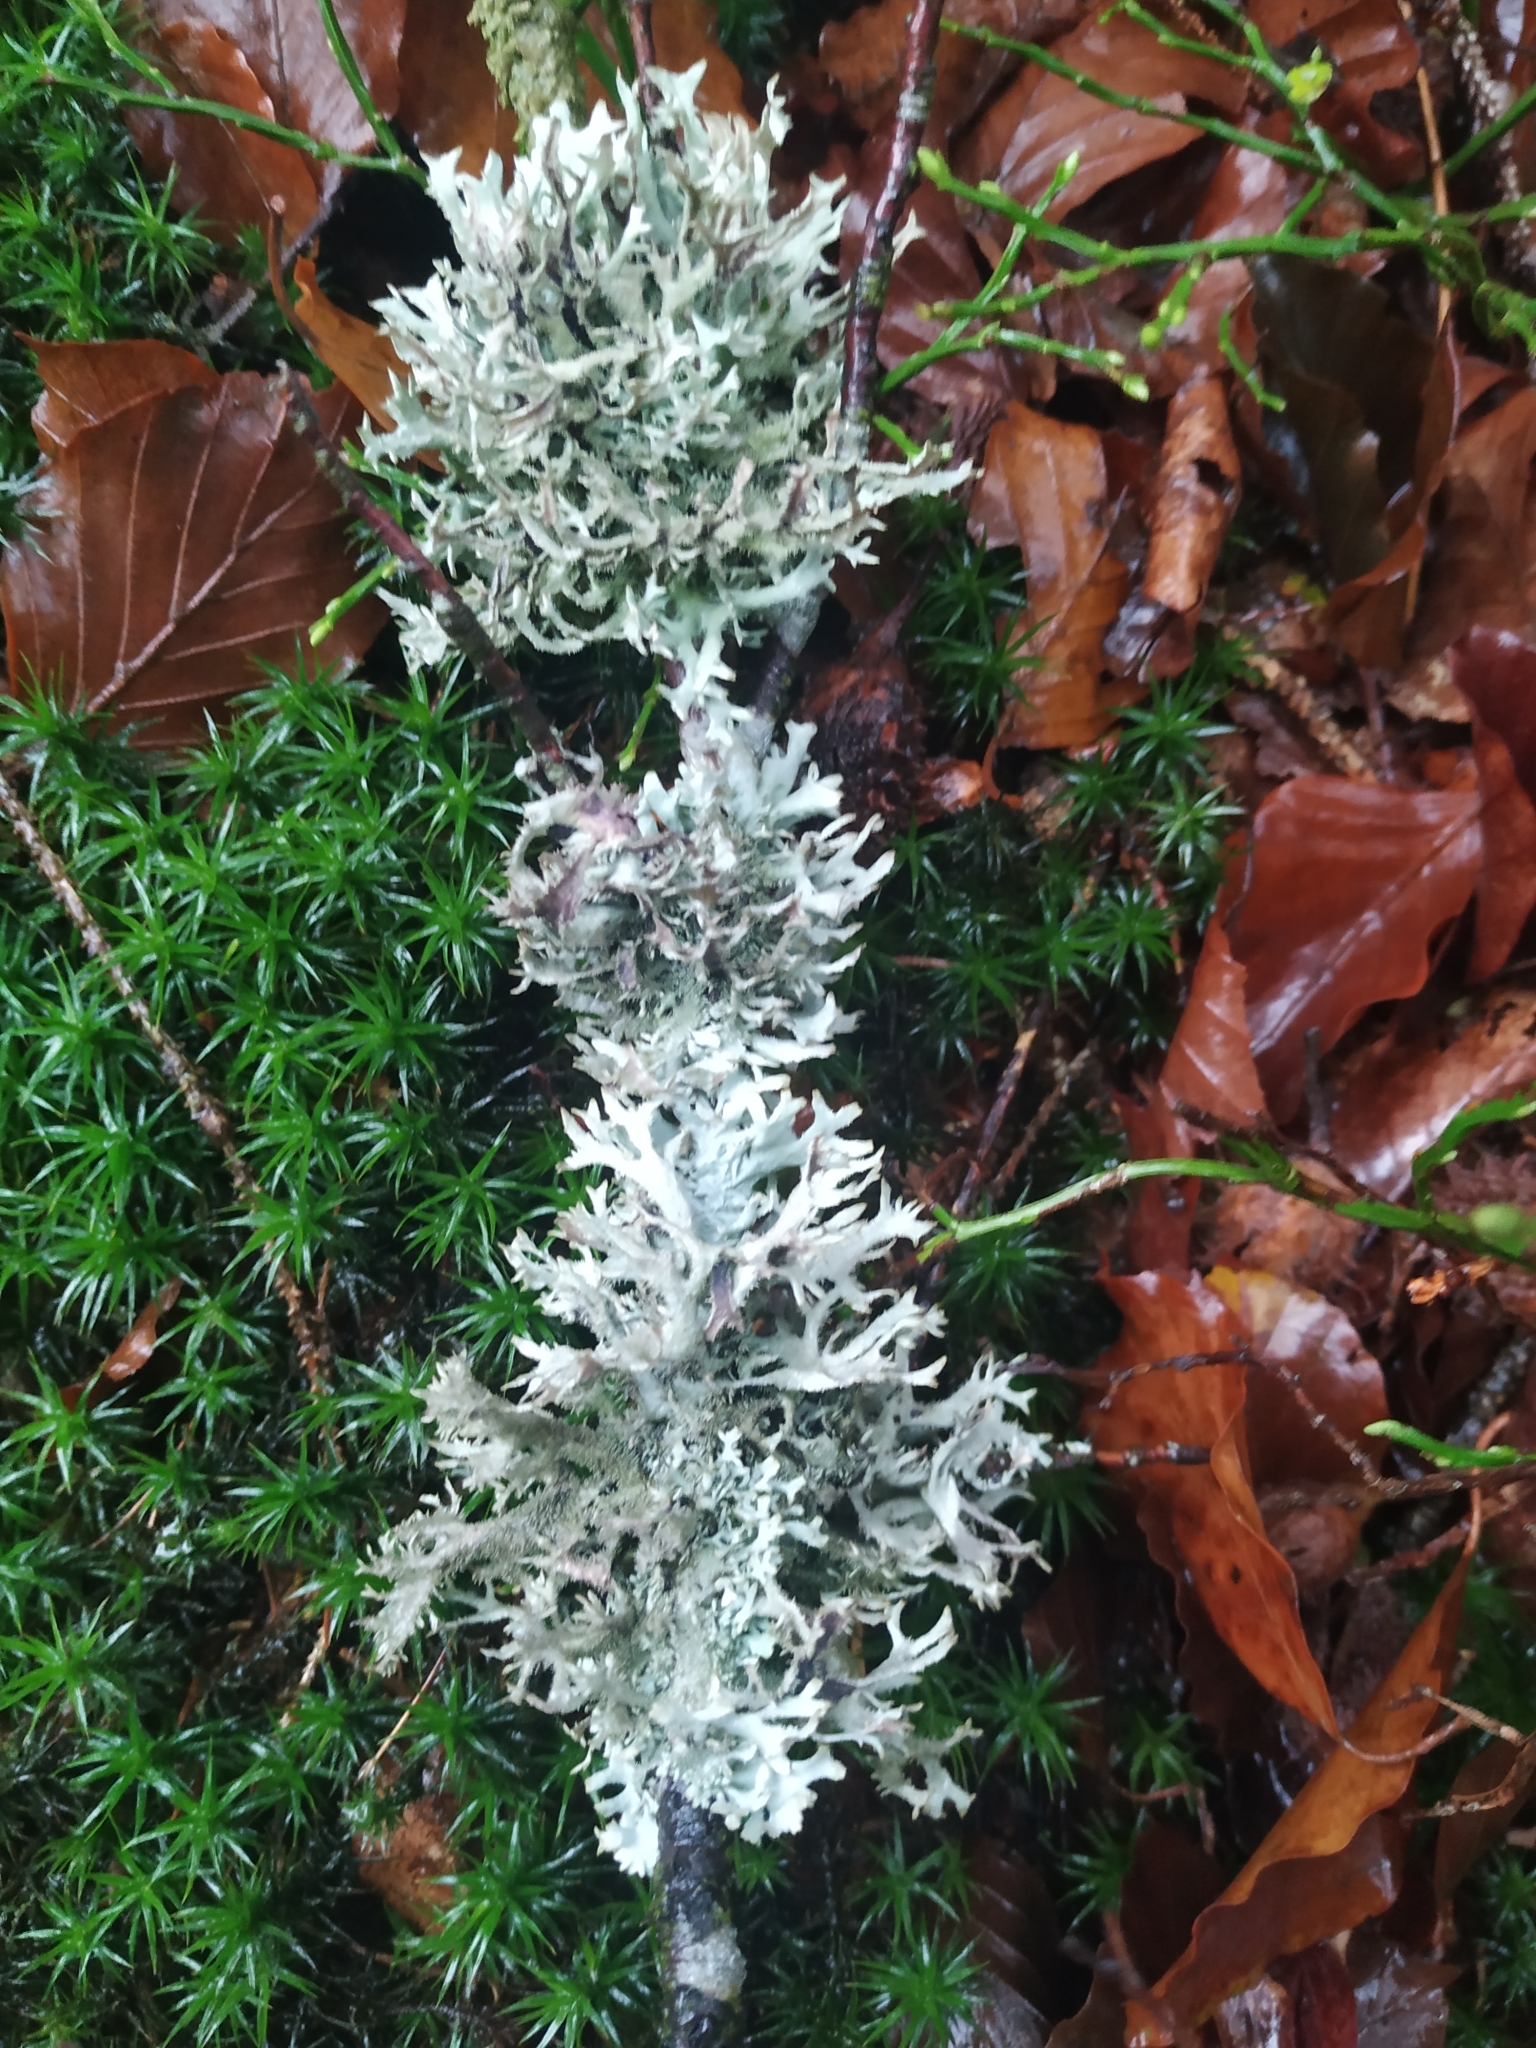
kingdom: Fungi
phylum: Ascomycota
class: Lecanoromycetes
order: Lecanorales
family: Parmeliaceae
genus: Pseudevernia
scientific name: Pseudevernia furfuracea
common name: Tree moss
